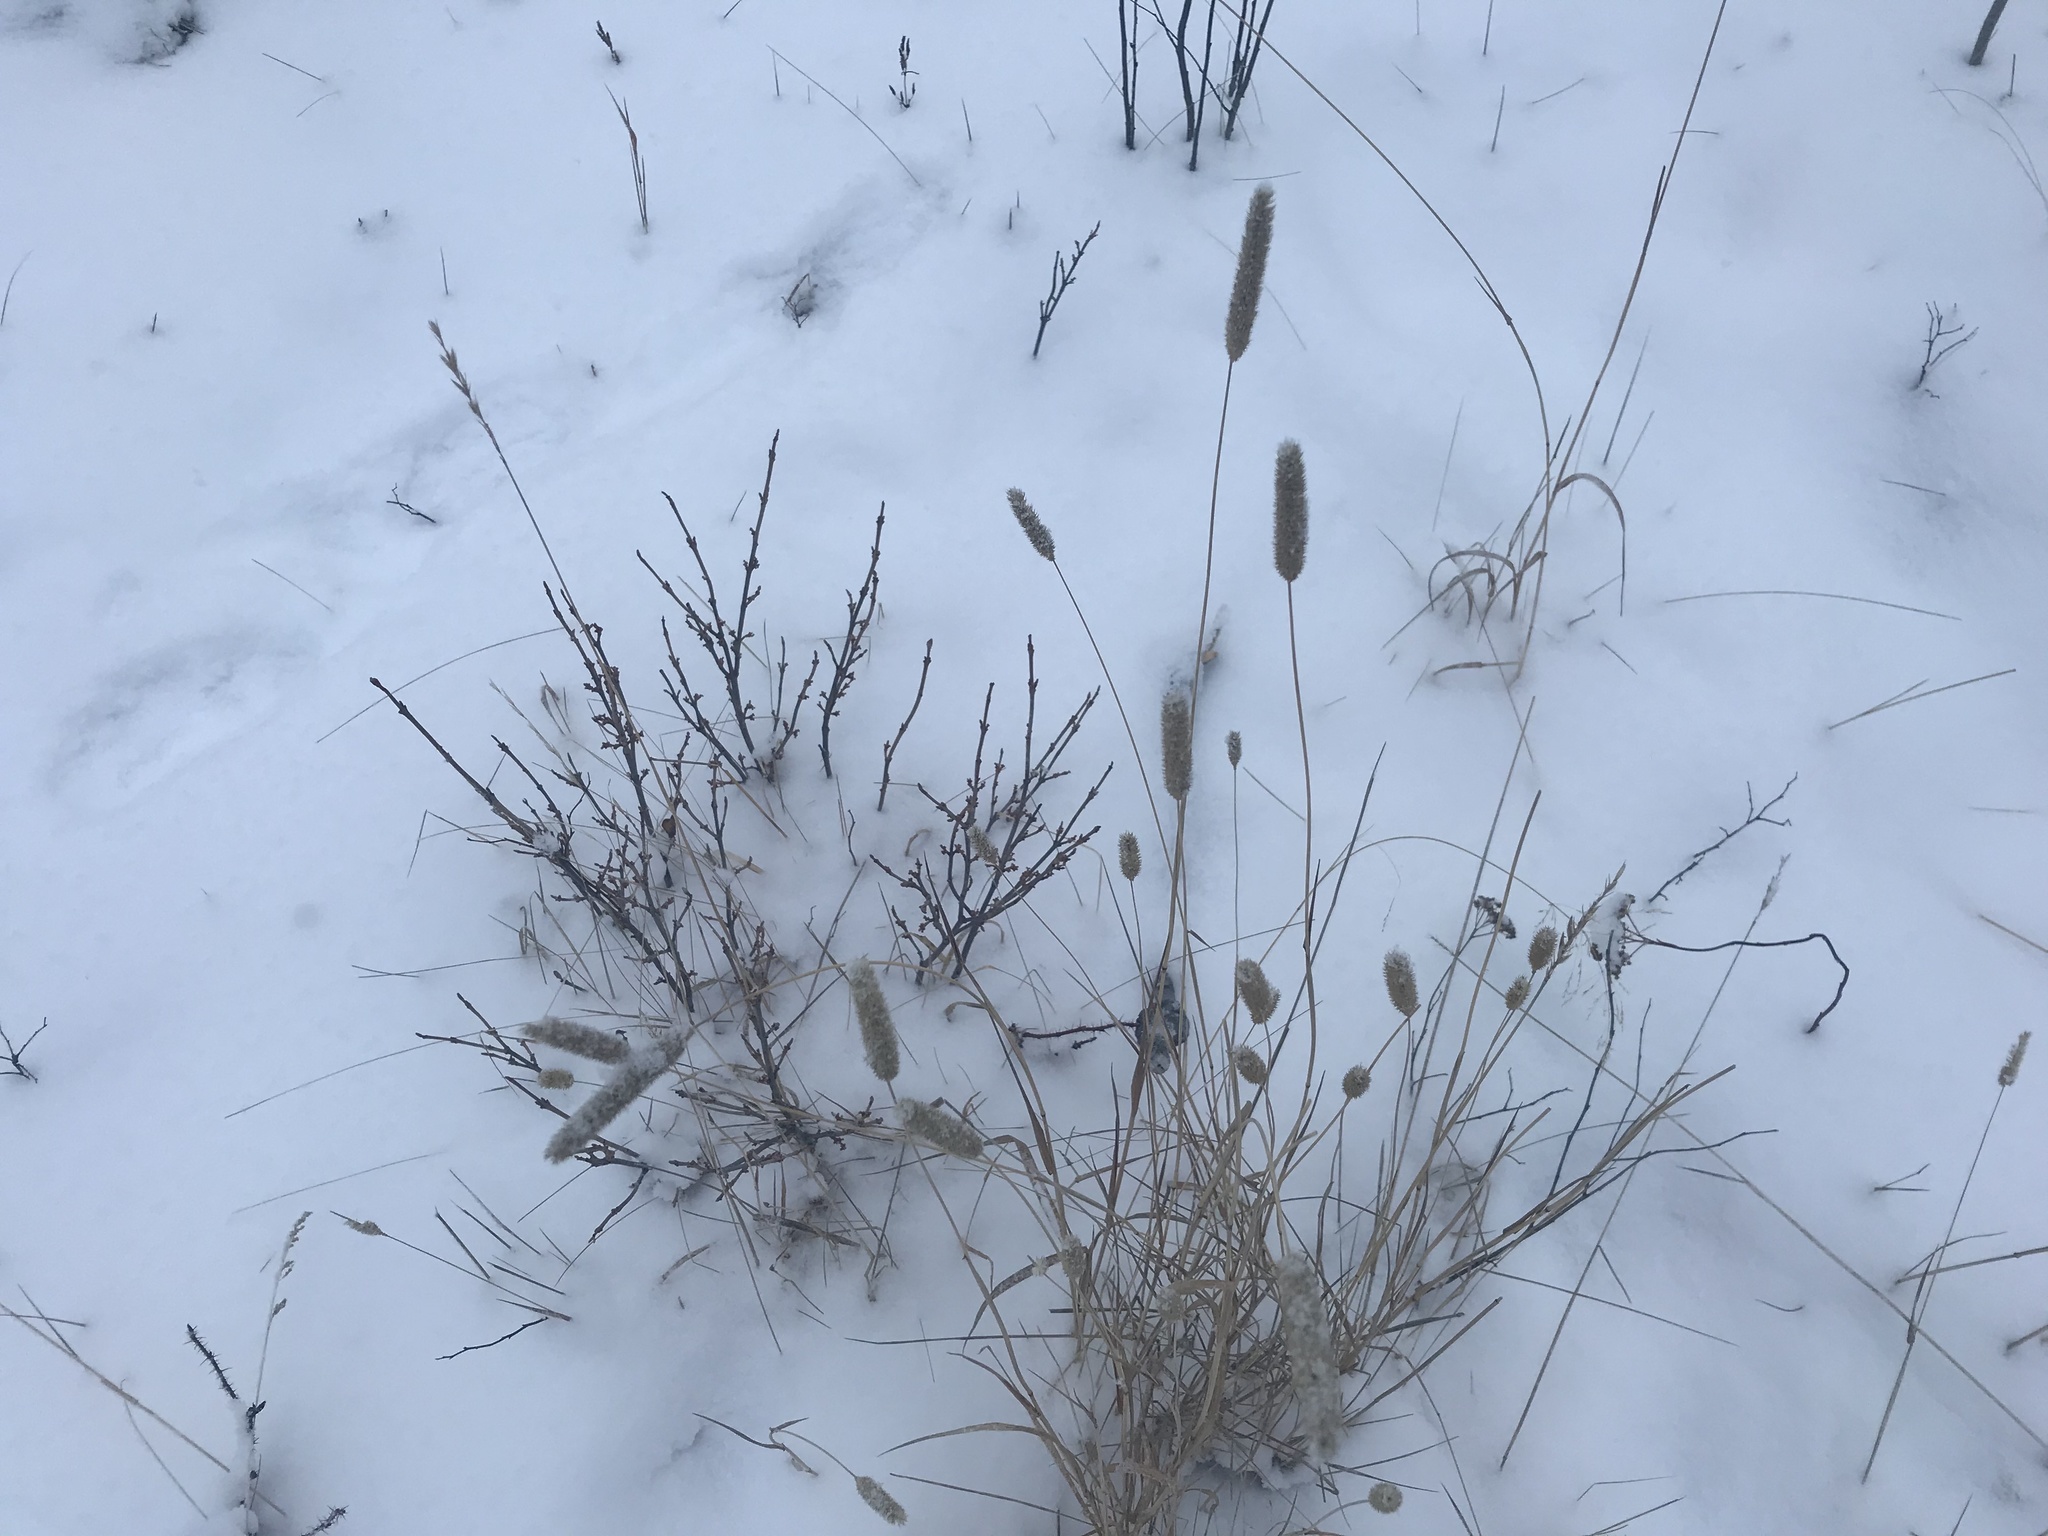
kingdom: Plantae
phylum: Tracheophyta
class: Liliopsida
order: Poales
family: Poaceae
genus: Phleum
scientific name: Phleum pratense
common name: Timothy grass
